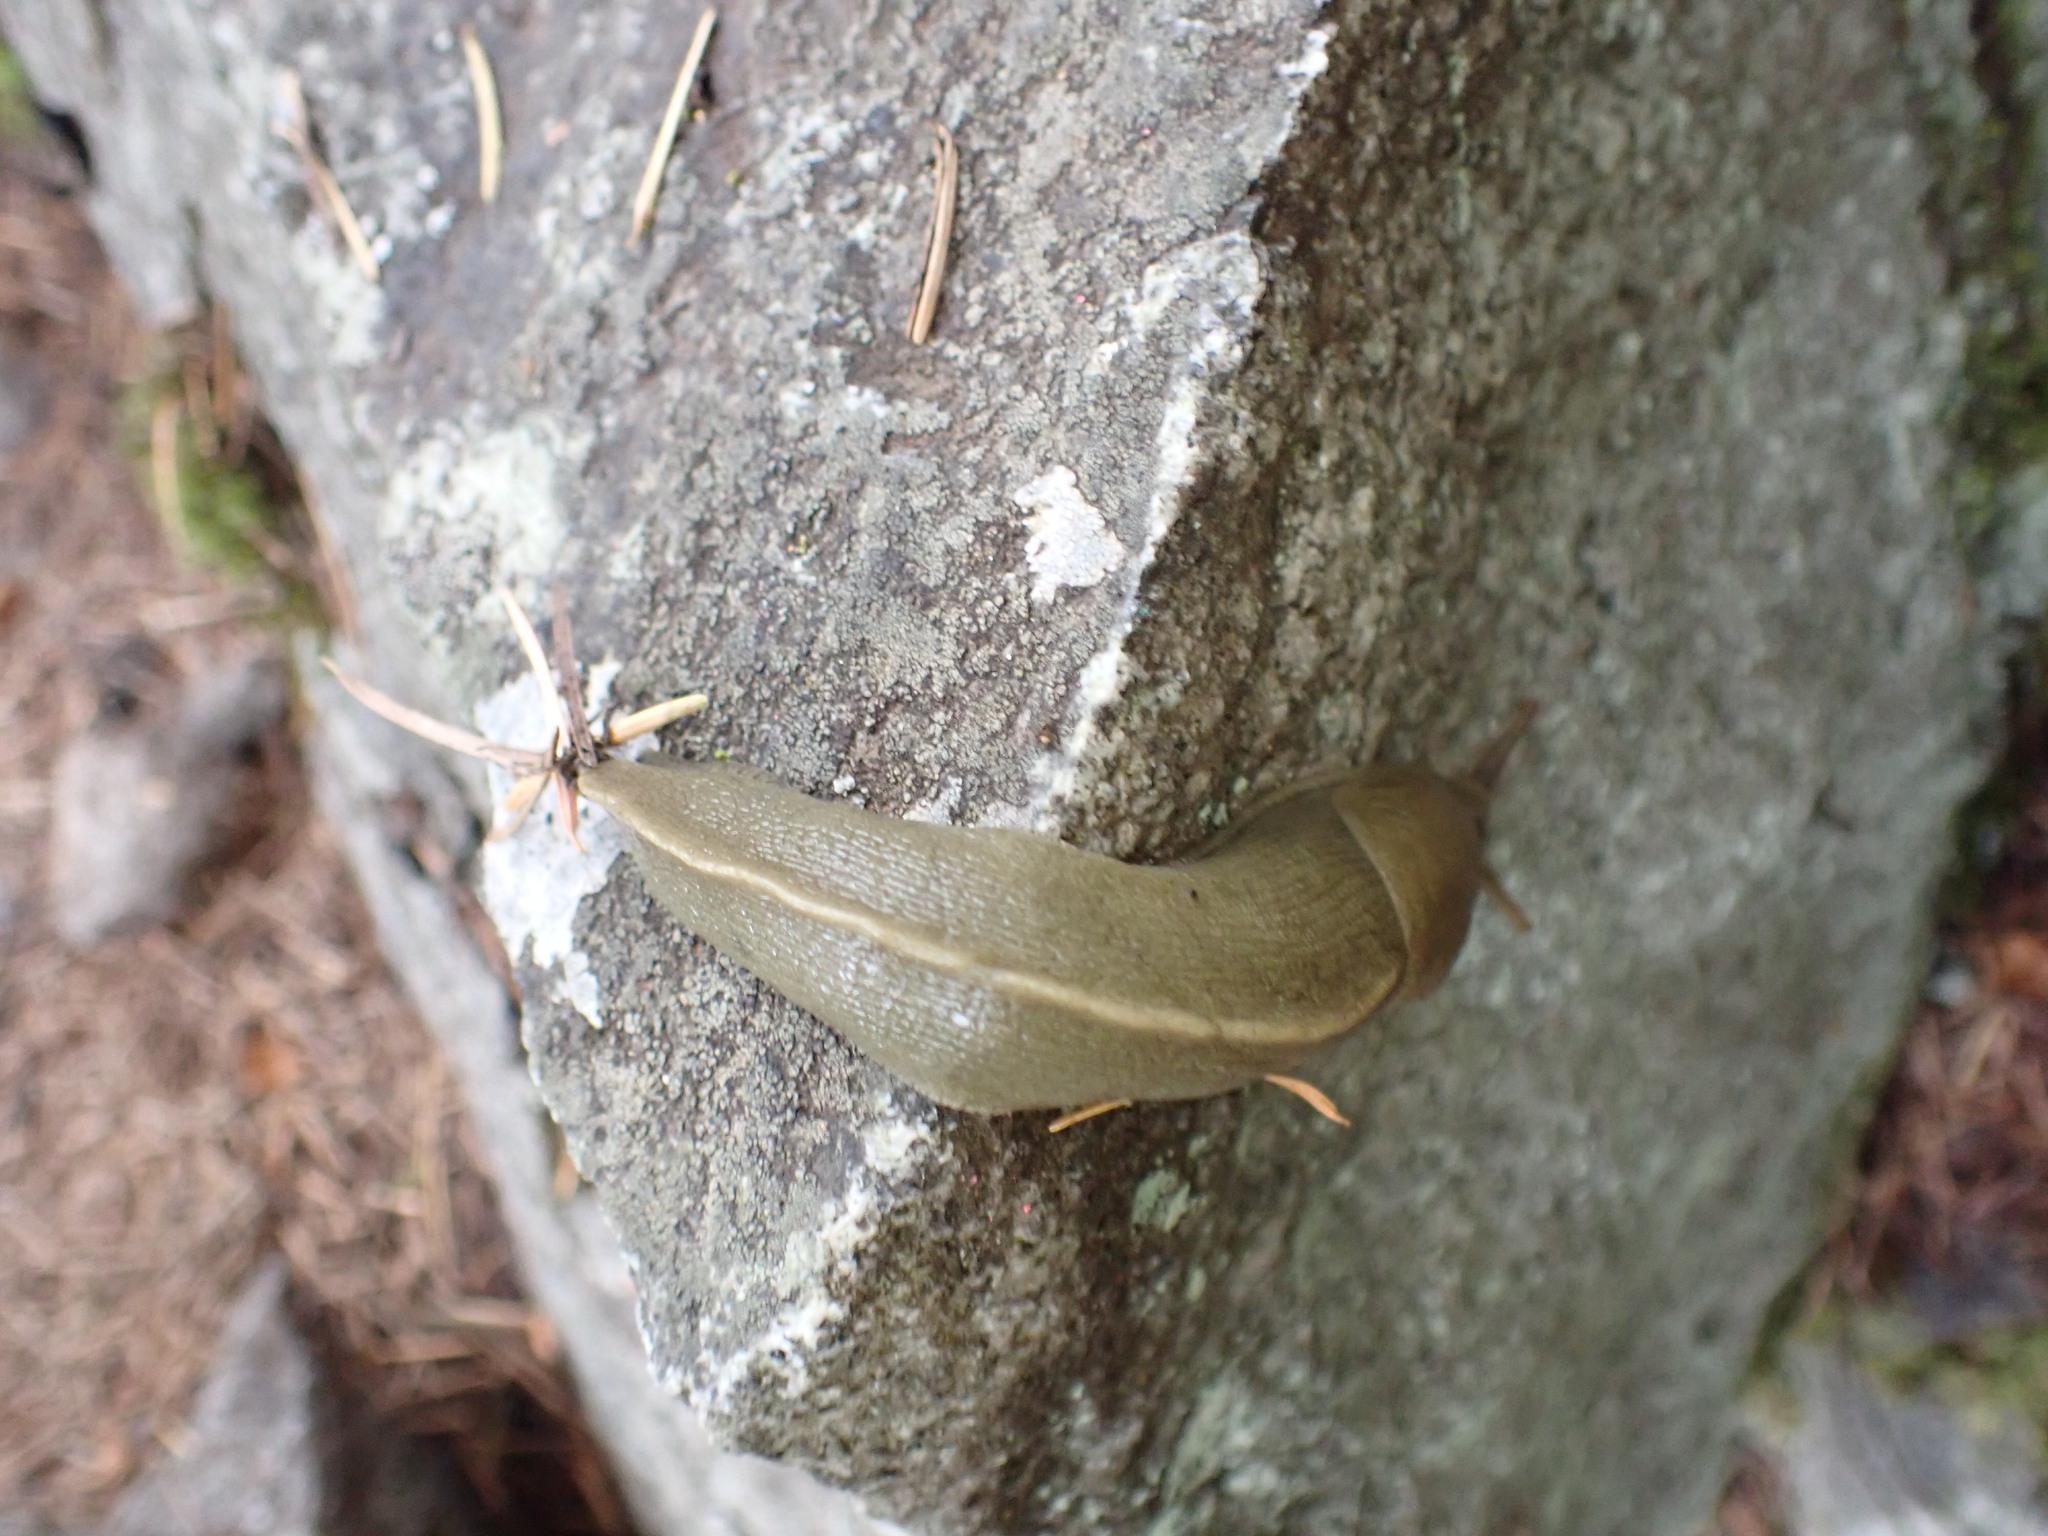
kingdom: Animalia
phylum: Mollusca
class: Gastropoda
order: Stylommatophora
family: Ariolimacidae
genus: Ariolimax
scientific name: Ariolimax columbianus
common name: Pacific banana slug
